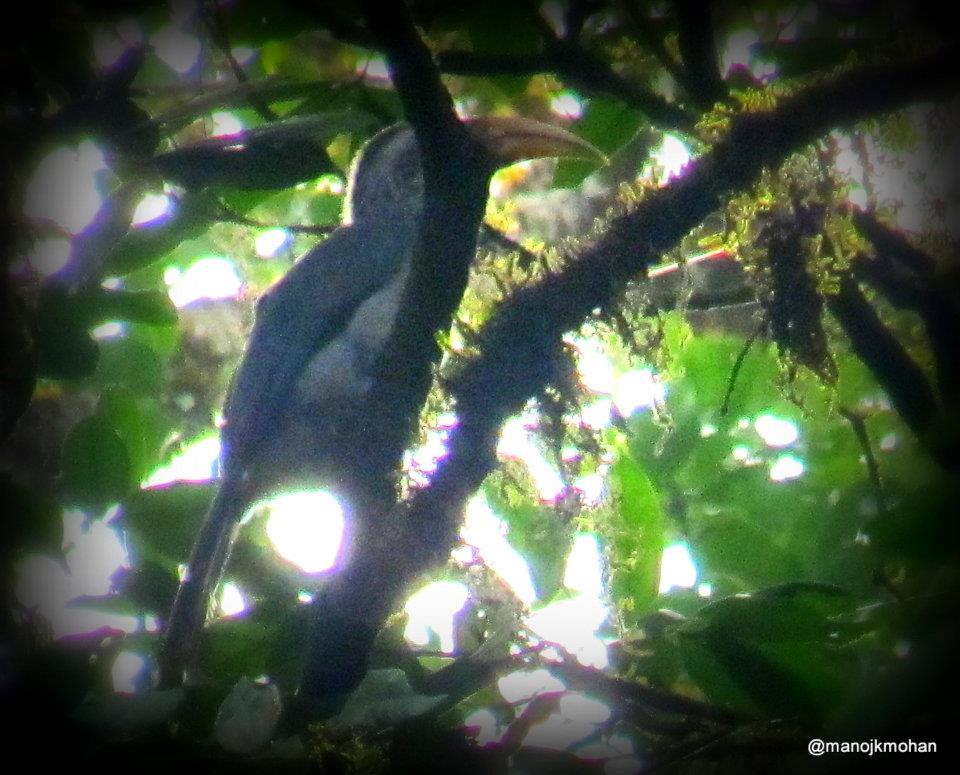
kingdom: Animalia
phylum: Chordata
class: Aves
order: Bucerotiformes
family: Bucerotidae
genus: Ocyceros
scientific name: Ocyceros griseus
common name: Malabar grey hornbill
